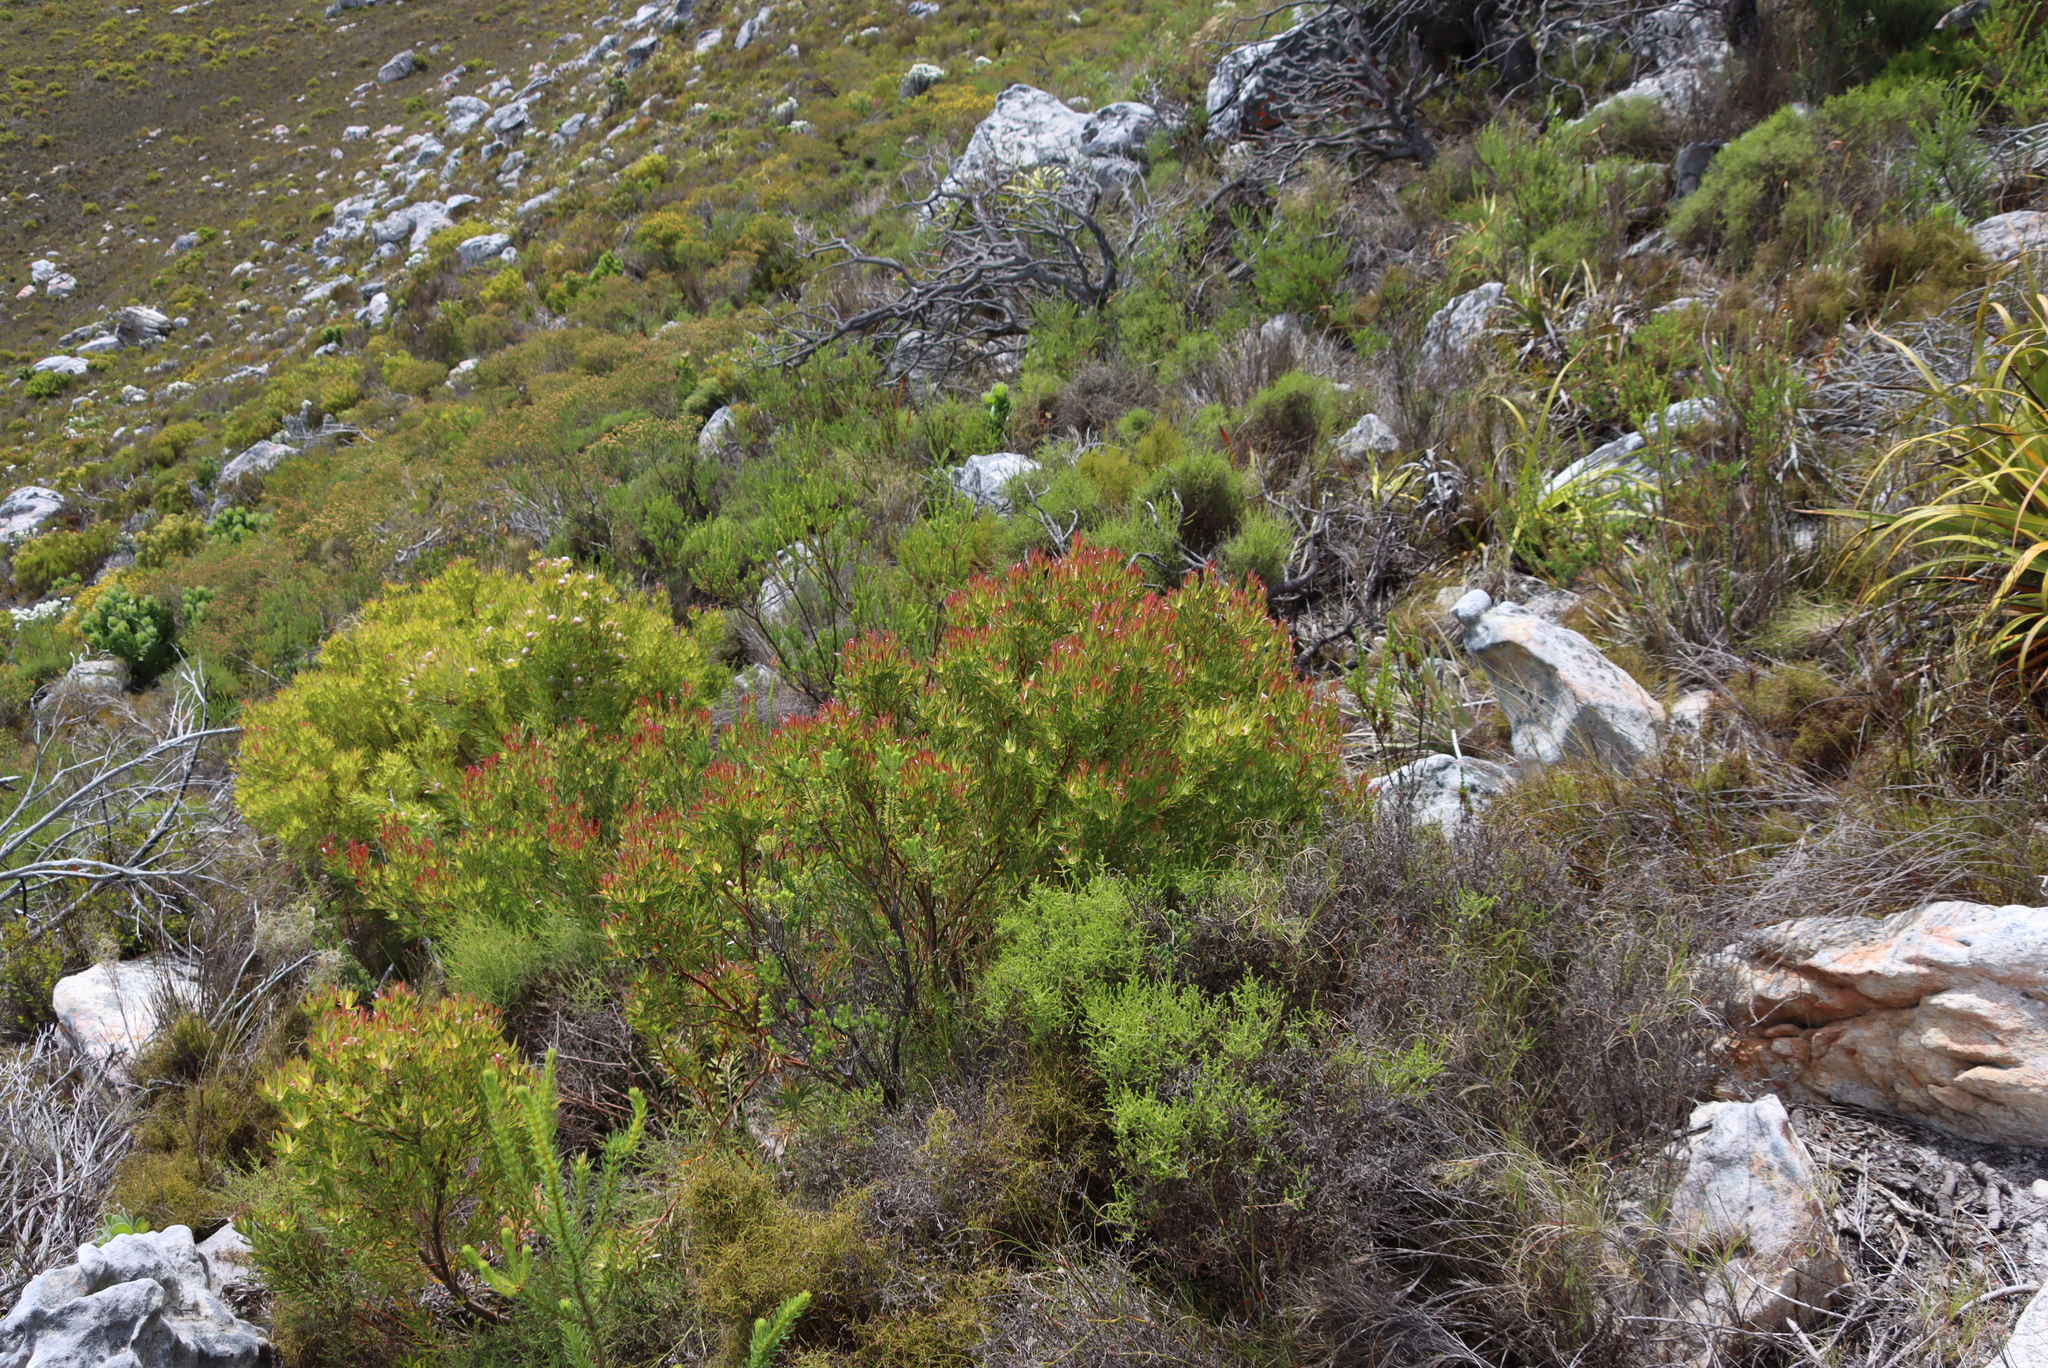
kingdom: Plantae
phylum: Tracheophyta
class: Magnoliopsida
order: Proteales
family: Proteaceae
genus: Leucadendron
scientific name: Leucadendron xanthoconus
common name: Sickle-leaf conebush
